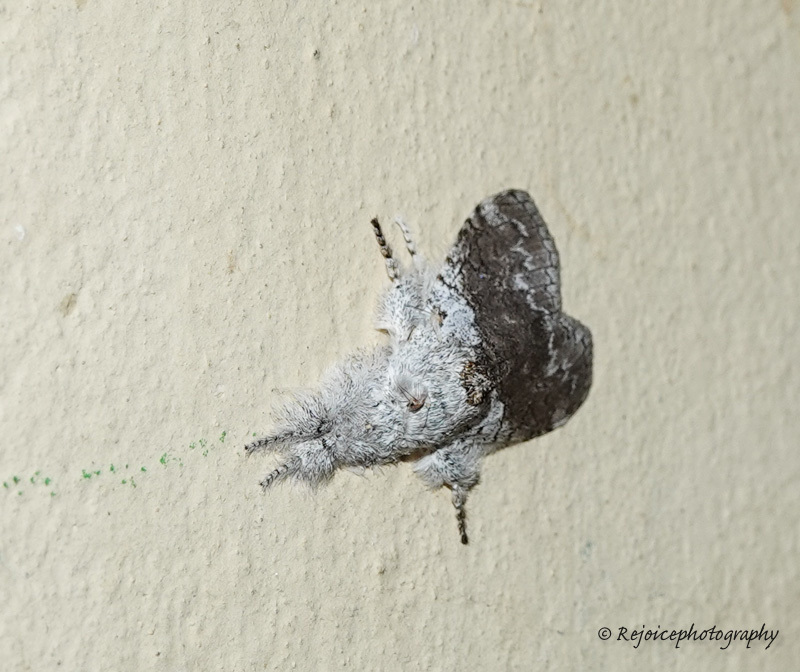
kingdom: Animalia
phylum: Arthropoda
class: Insecta
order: Lepidoptera
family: Erebidae
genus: Calliteara
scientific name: Calliteara grotei
